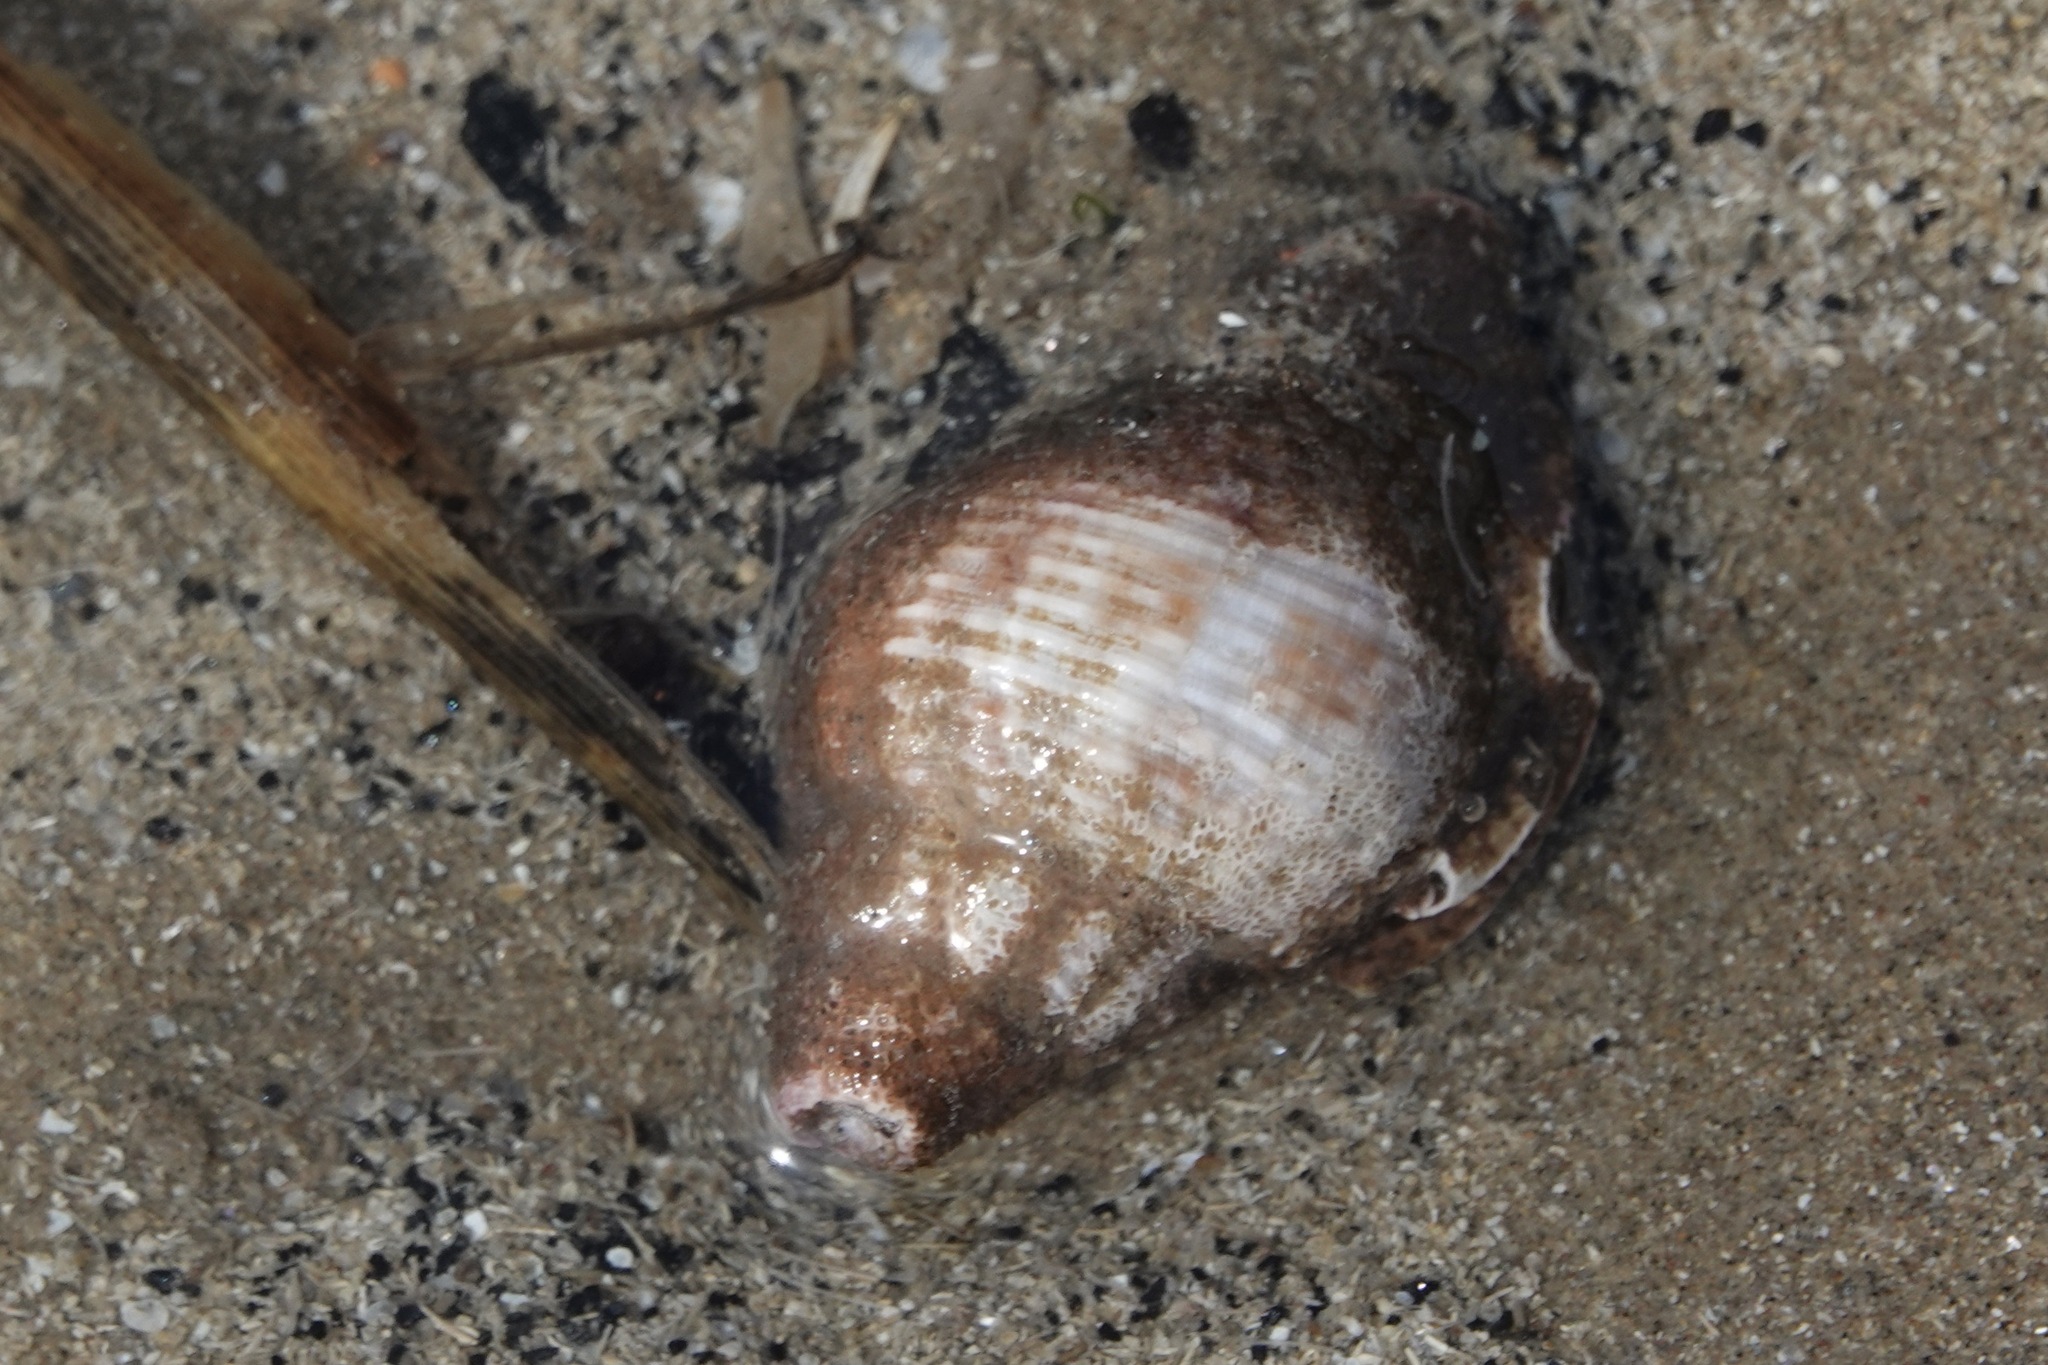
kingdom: Animalia
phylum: Mollusca
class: Gastropoda
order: Neogastropoda
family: Buccinidae
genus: Buccinum
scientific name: Buccinum undatum
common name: Common whelk
